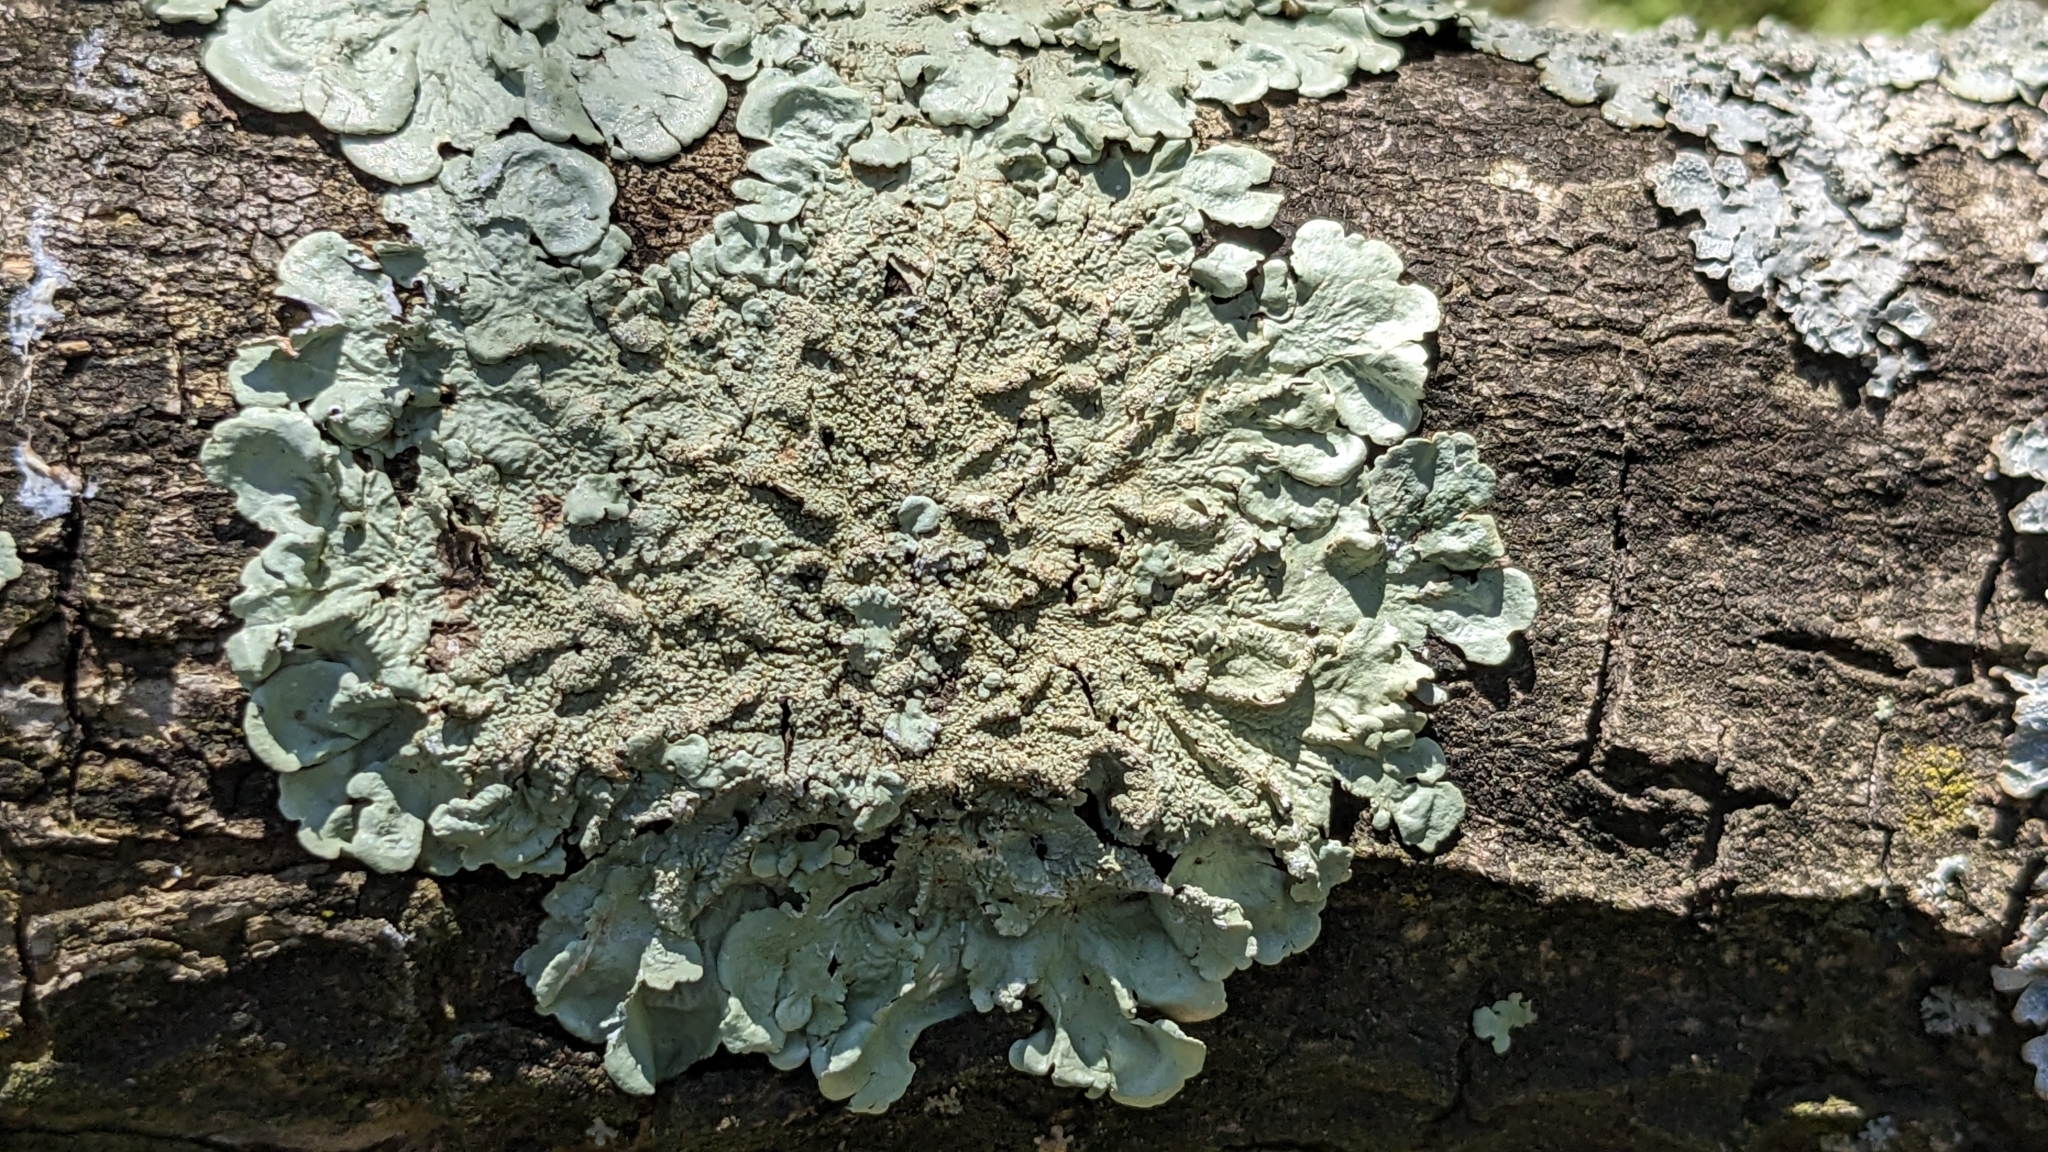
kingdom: Fungi
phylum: Ascomycota
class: Lecanoromycetes
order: Lecanorales
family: Parmeliaceae
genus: Flavoparmelia
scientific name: Flavoparmelia caperata
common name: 40-mile per hour lichen
